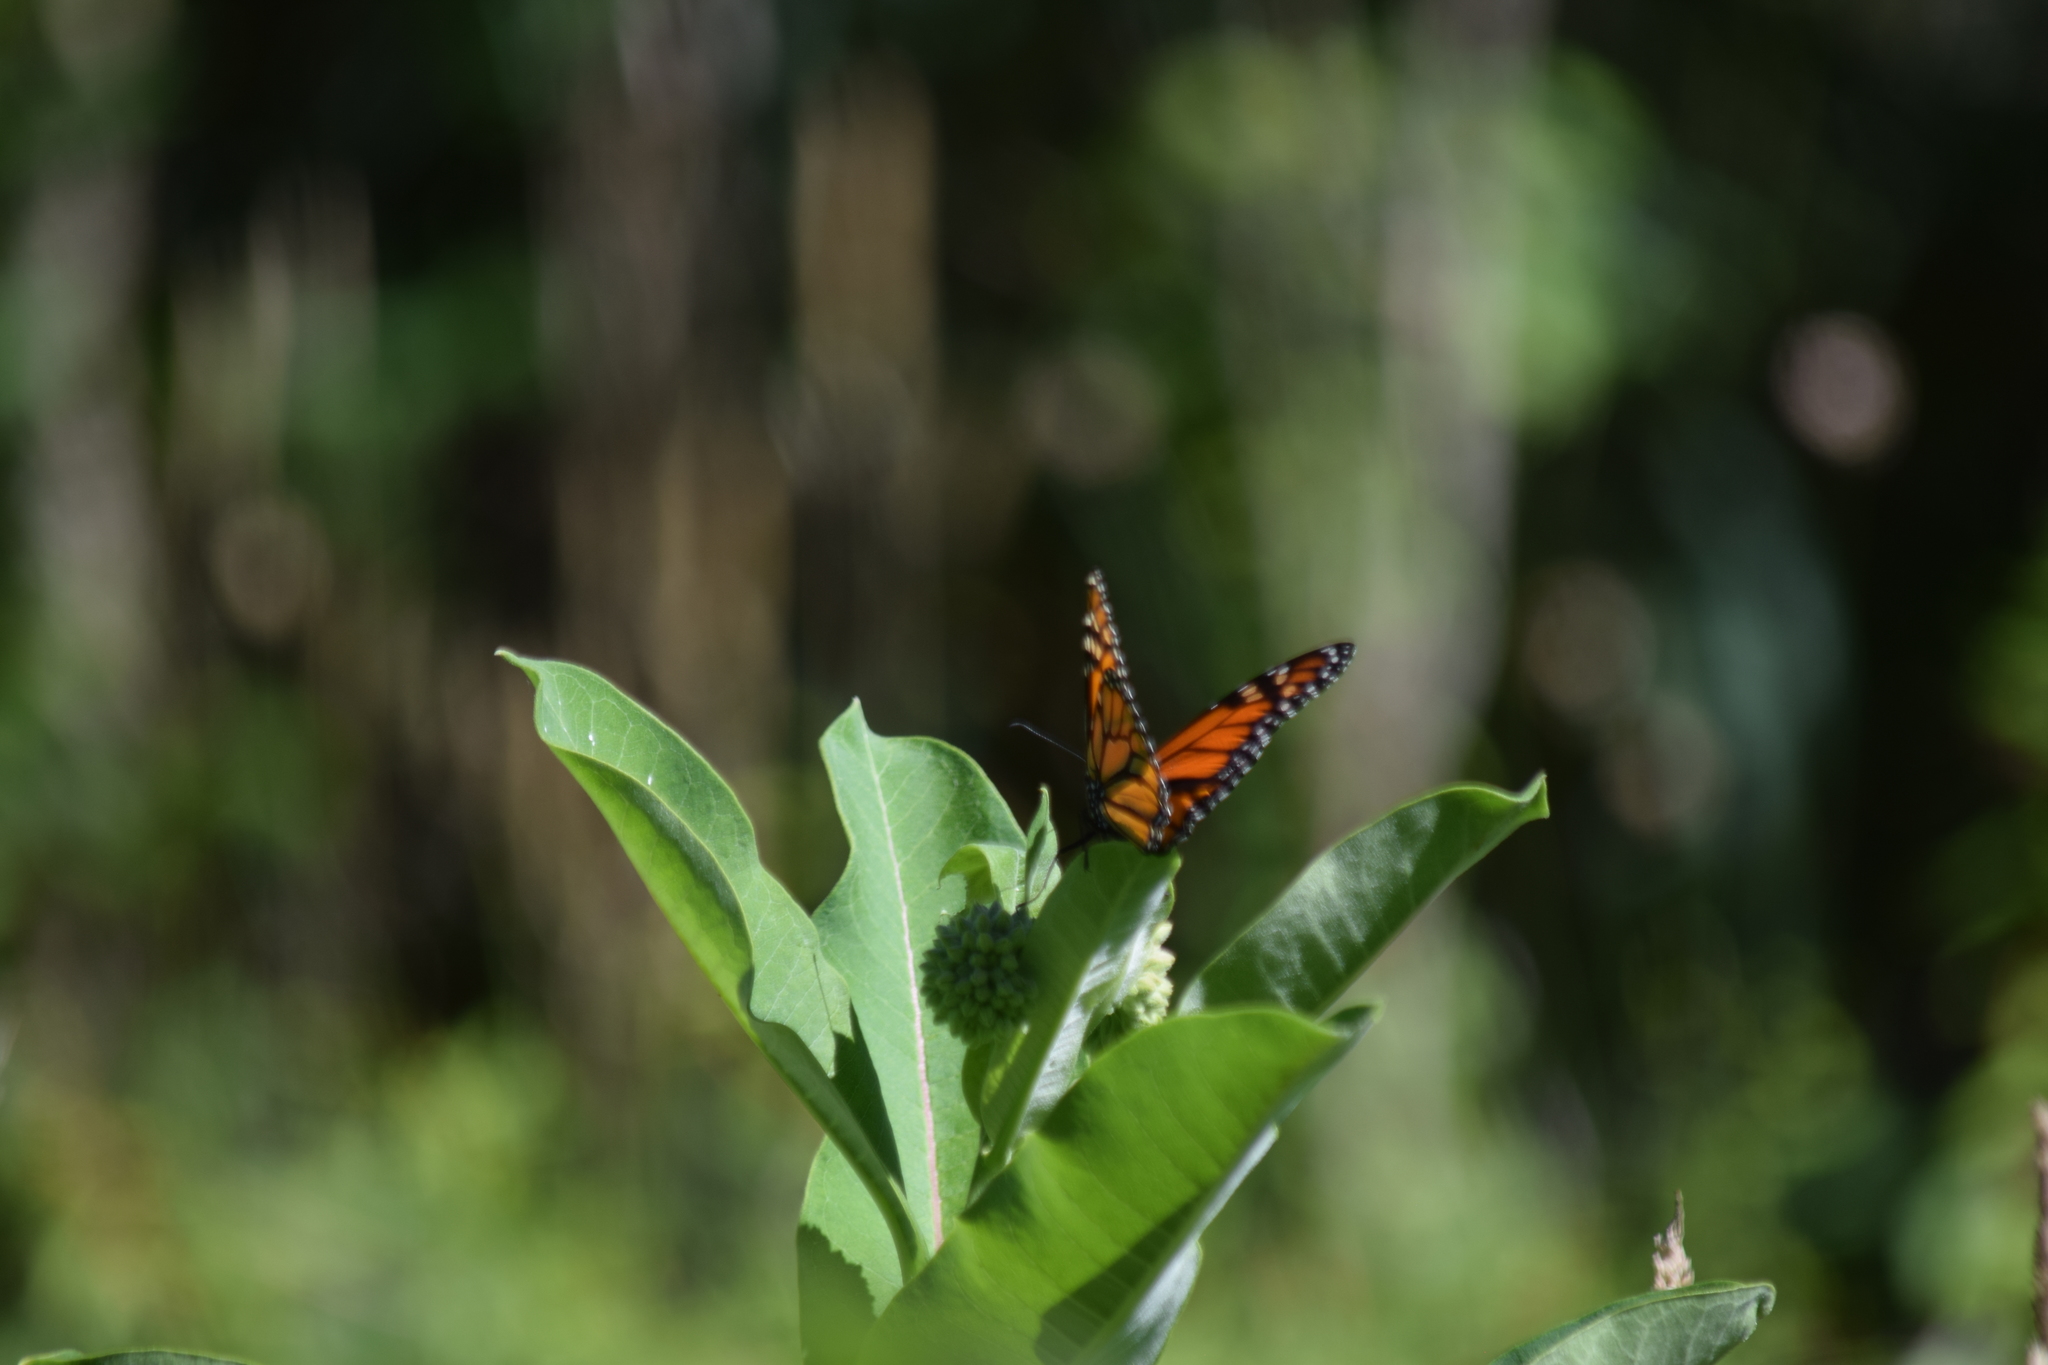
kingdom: Animalia
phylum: Arthropoda
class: Insecta
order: Lepidoptera
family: Nymphalidae
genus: Danaus
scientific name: Danaus plexippus
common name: Monarch
